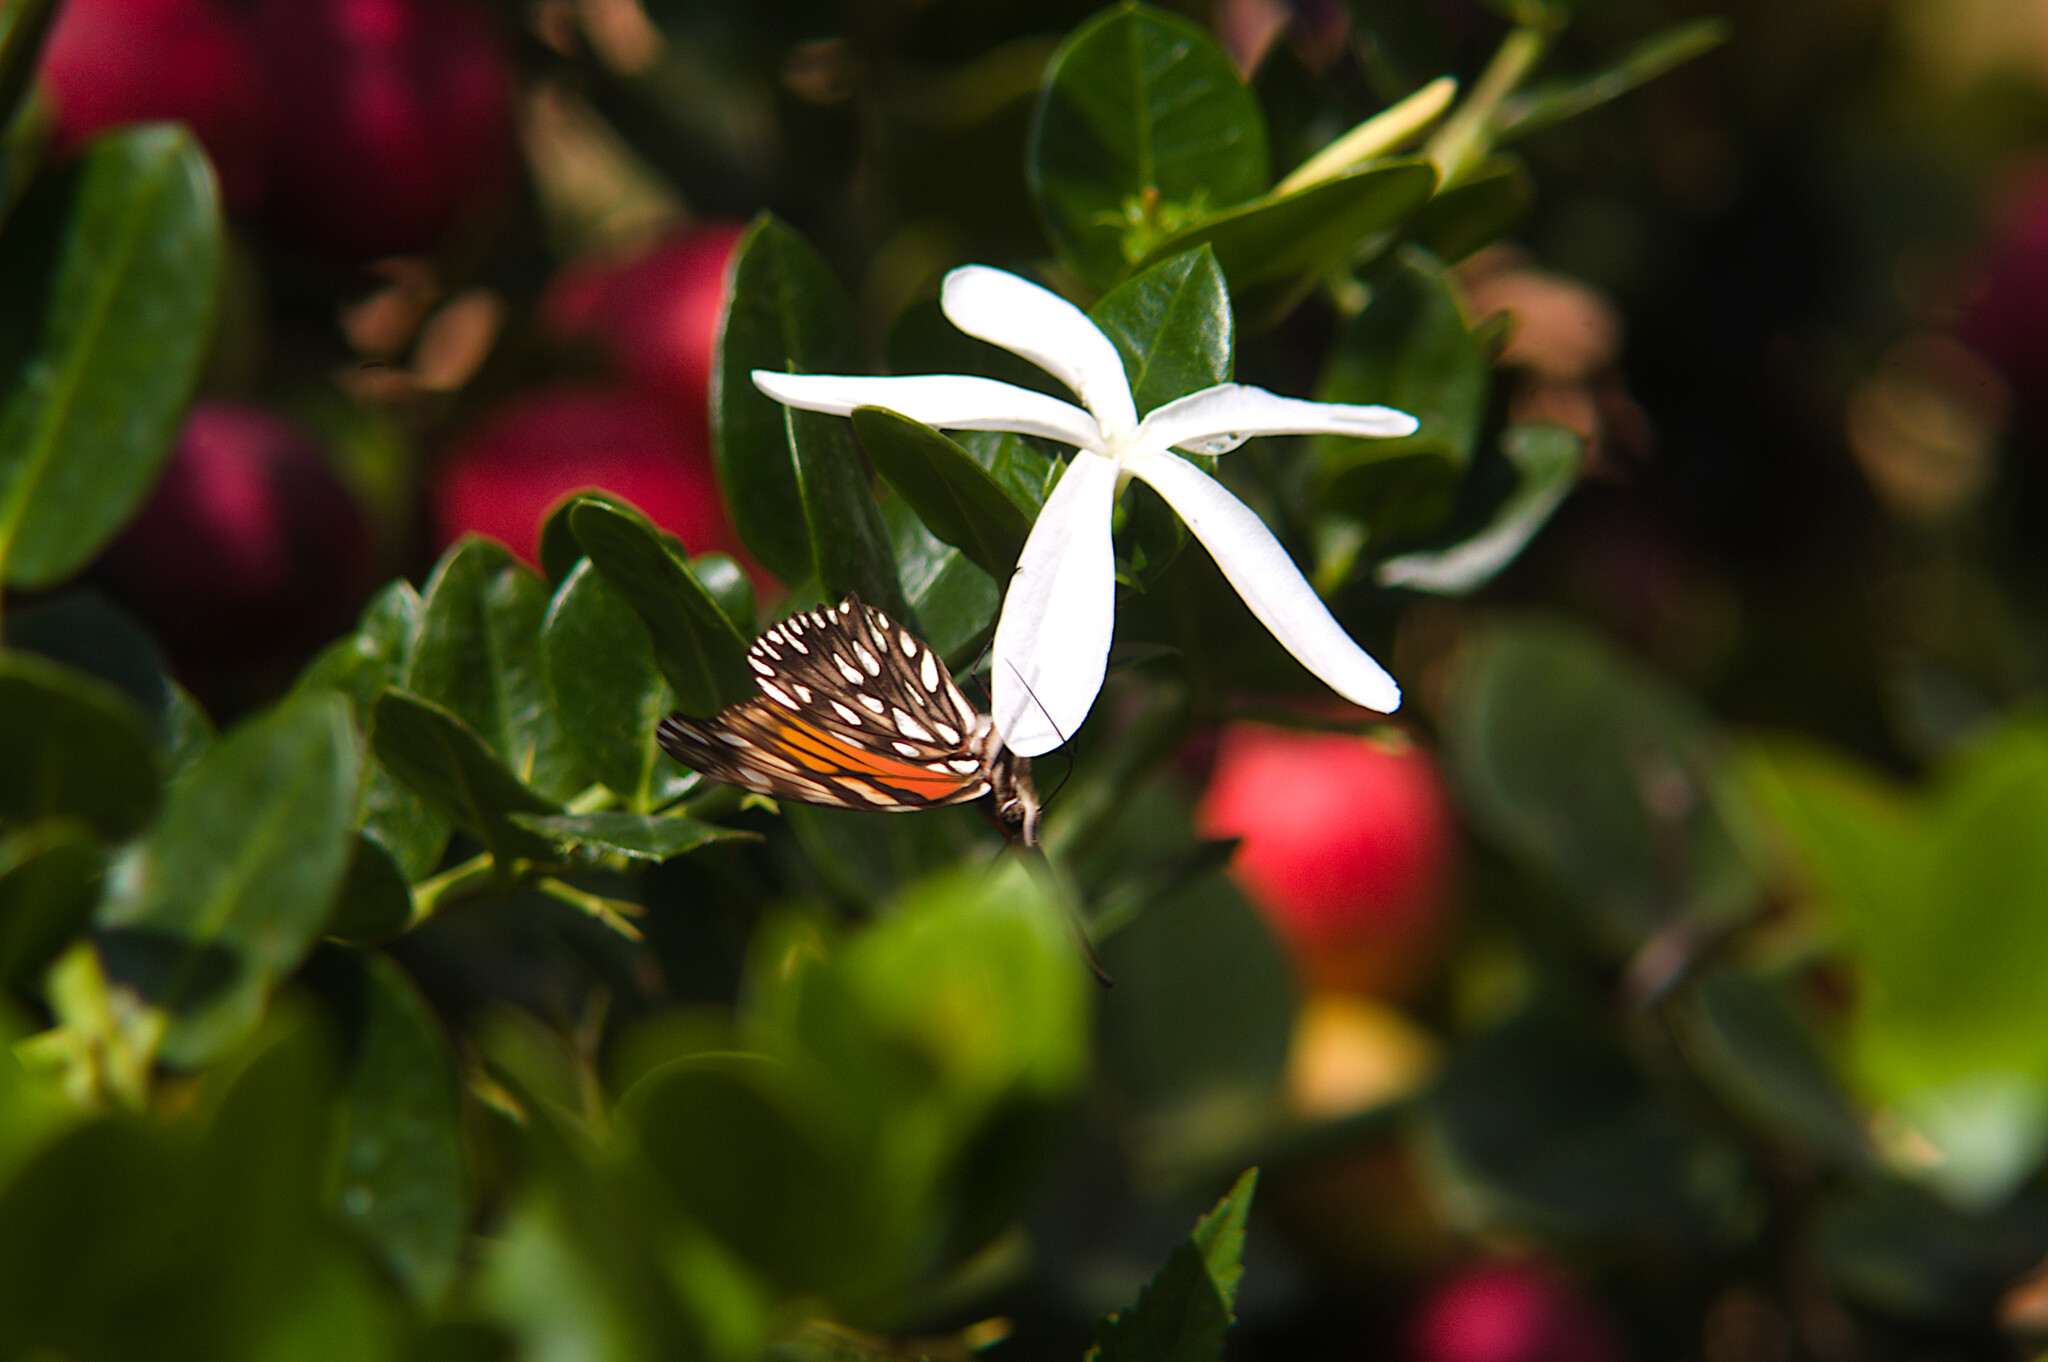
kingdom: Animalia
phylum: Arthropoda
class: Insecta
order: Lepidoptera
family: Nymphalidae
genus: Dione
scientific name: Dione juno
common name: Juno silverspot
